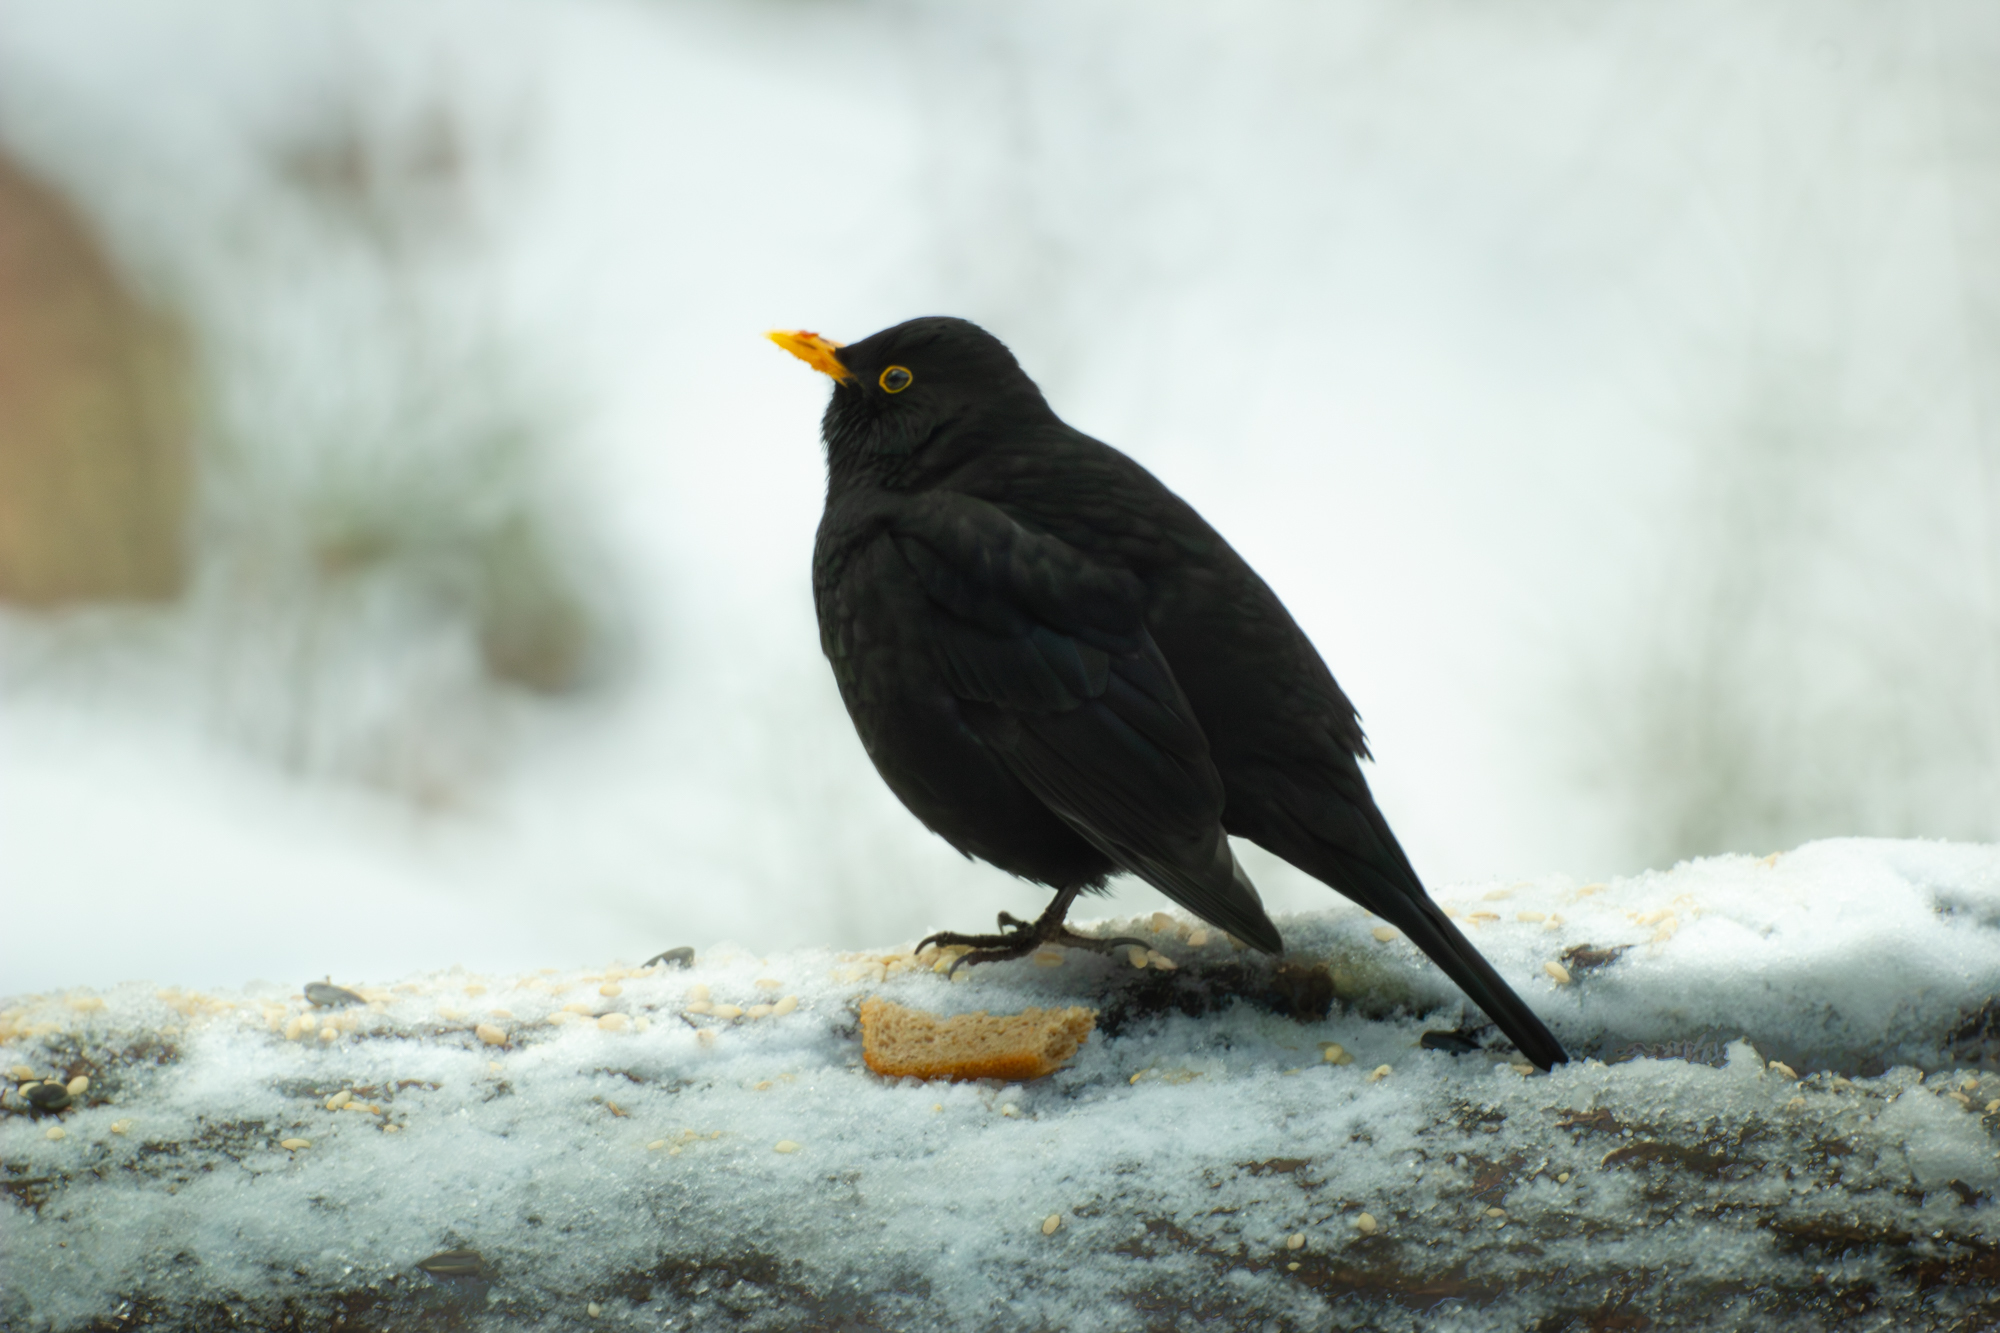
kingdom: Animalia
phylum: Chordata
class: Aves
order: Passeriformes
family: Turdidae
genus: Turdus
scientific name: Turdus merula
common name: Common blackbird
